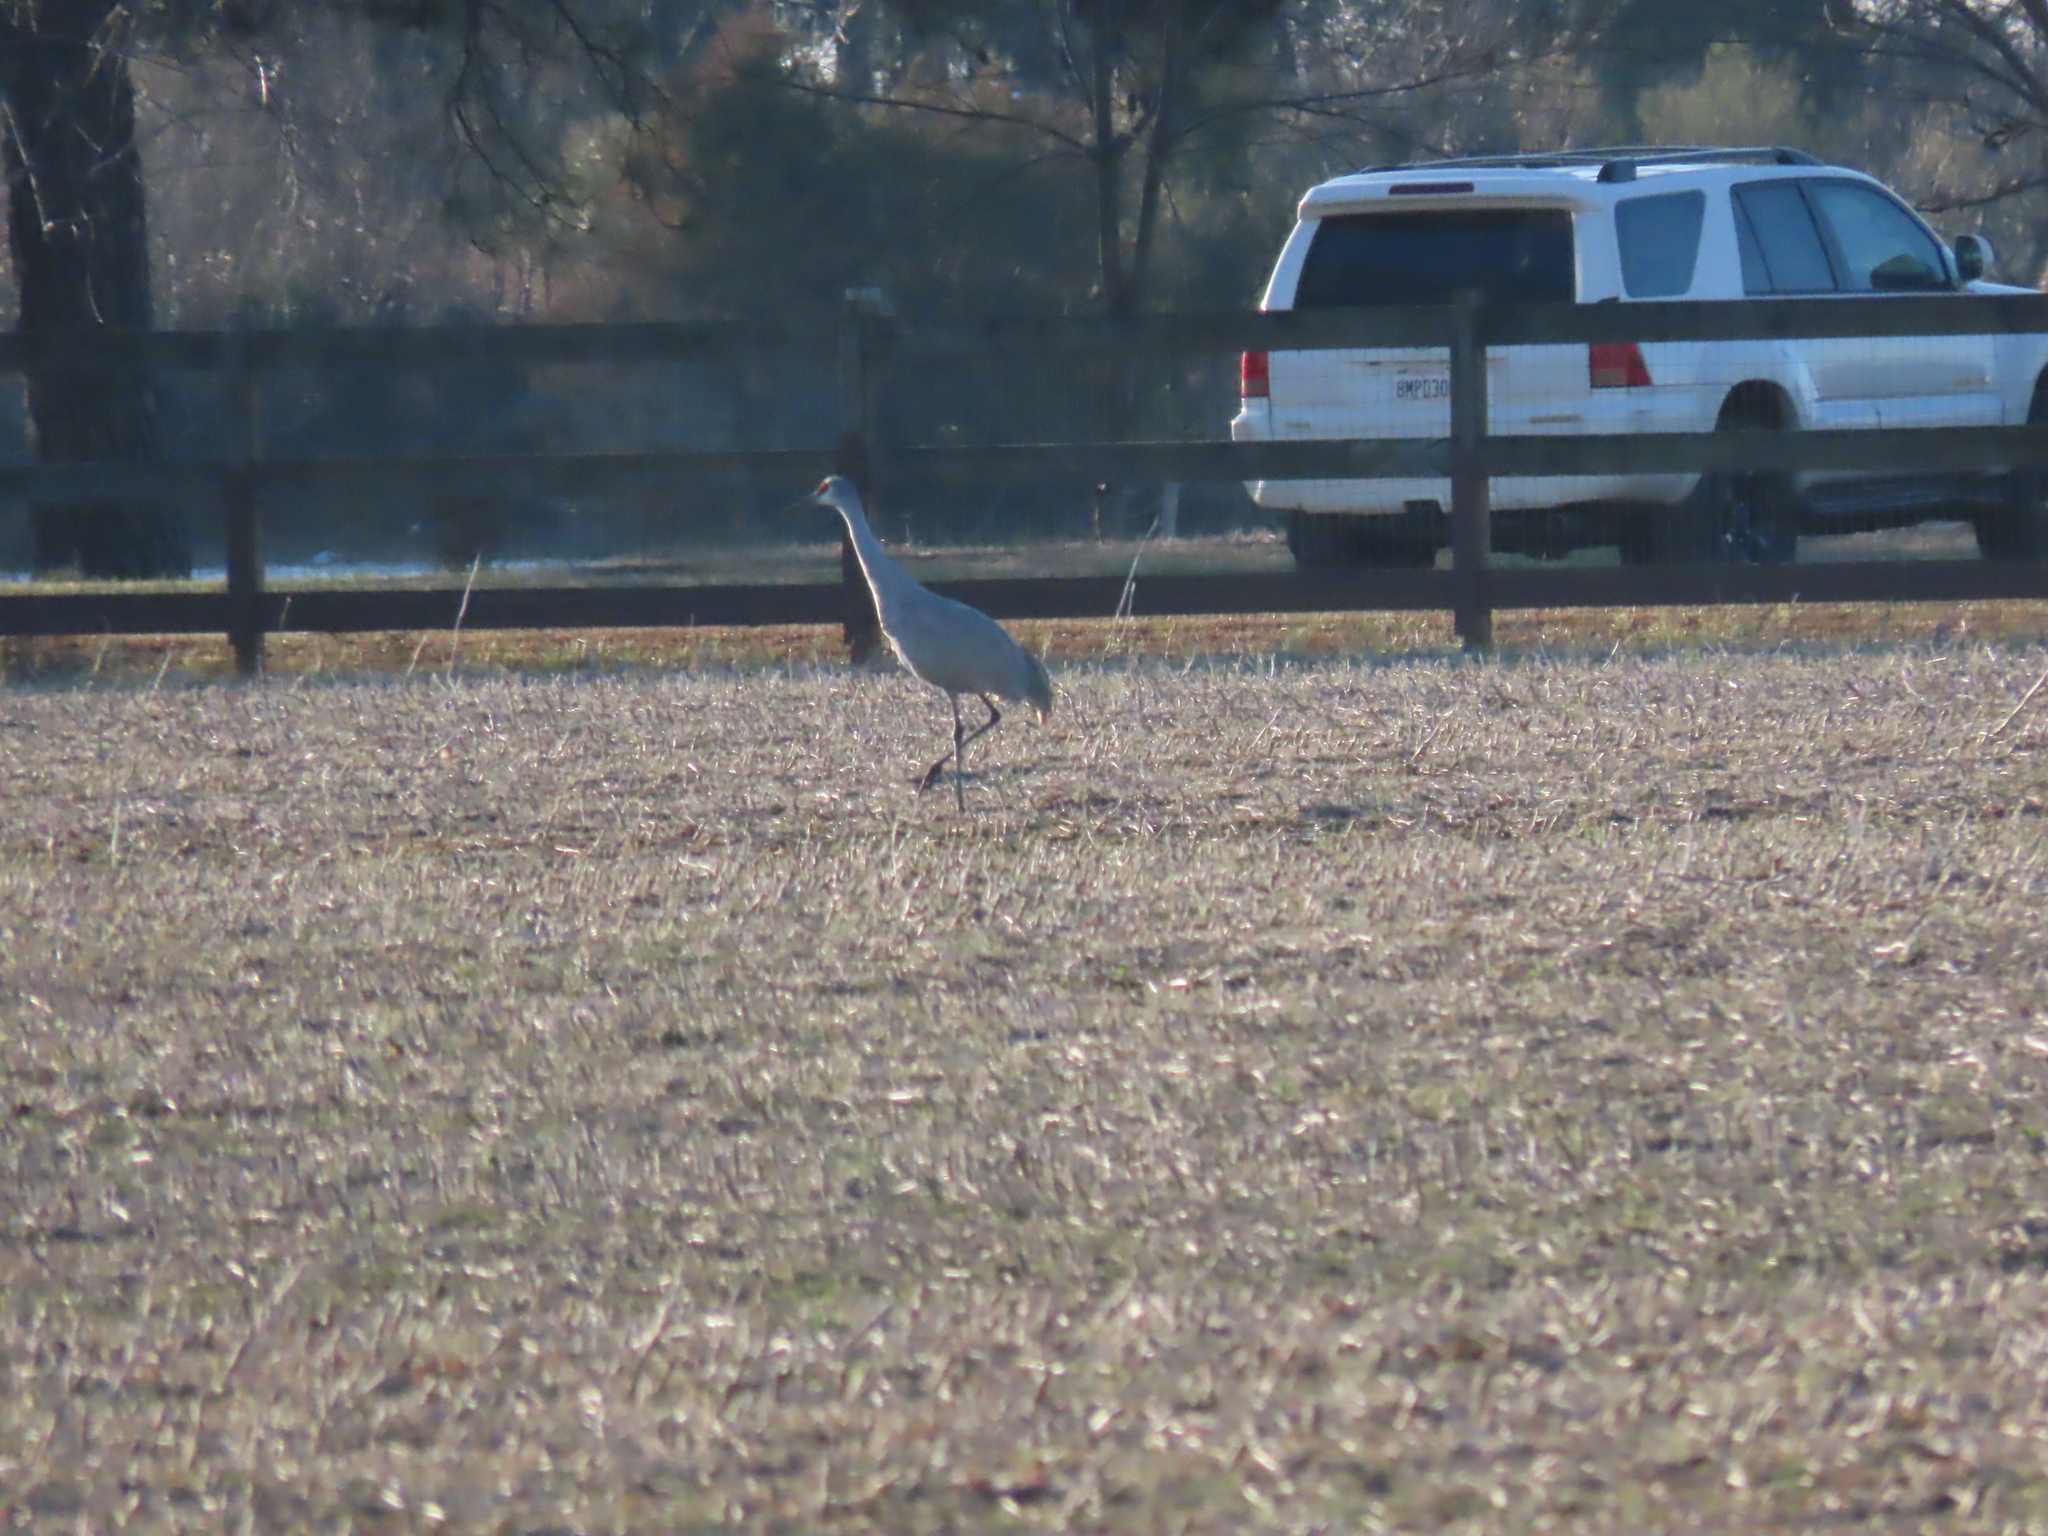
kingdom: Animalia
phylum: Chordata
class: Aves
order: Gruiformes
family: Gruidae
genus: Grus
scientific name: Grus canadensis
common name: Sandhill crane
